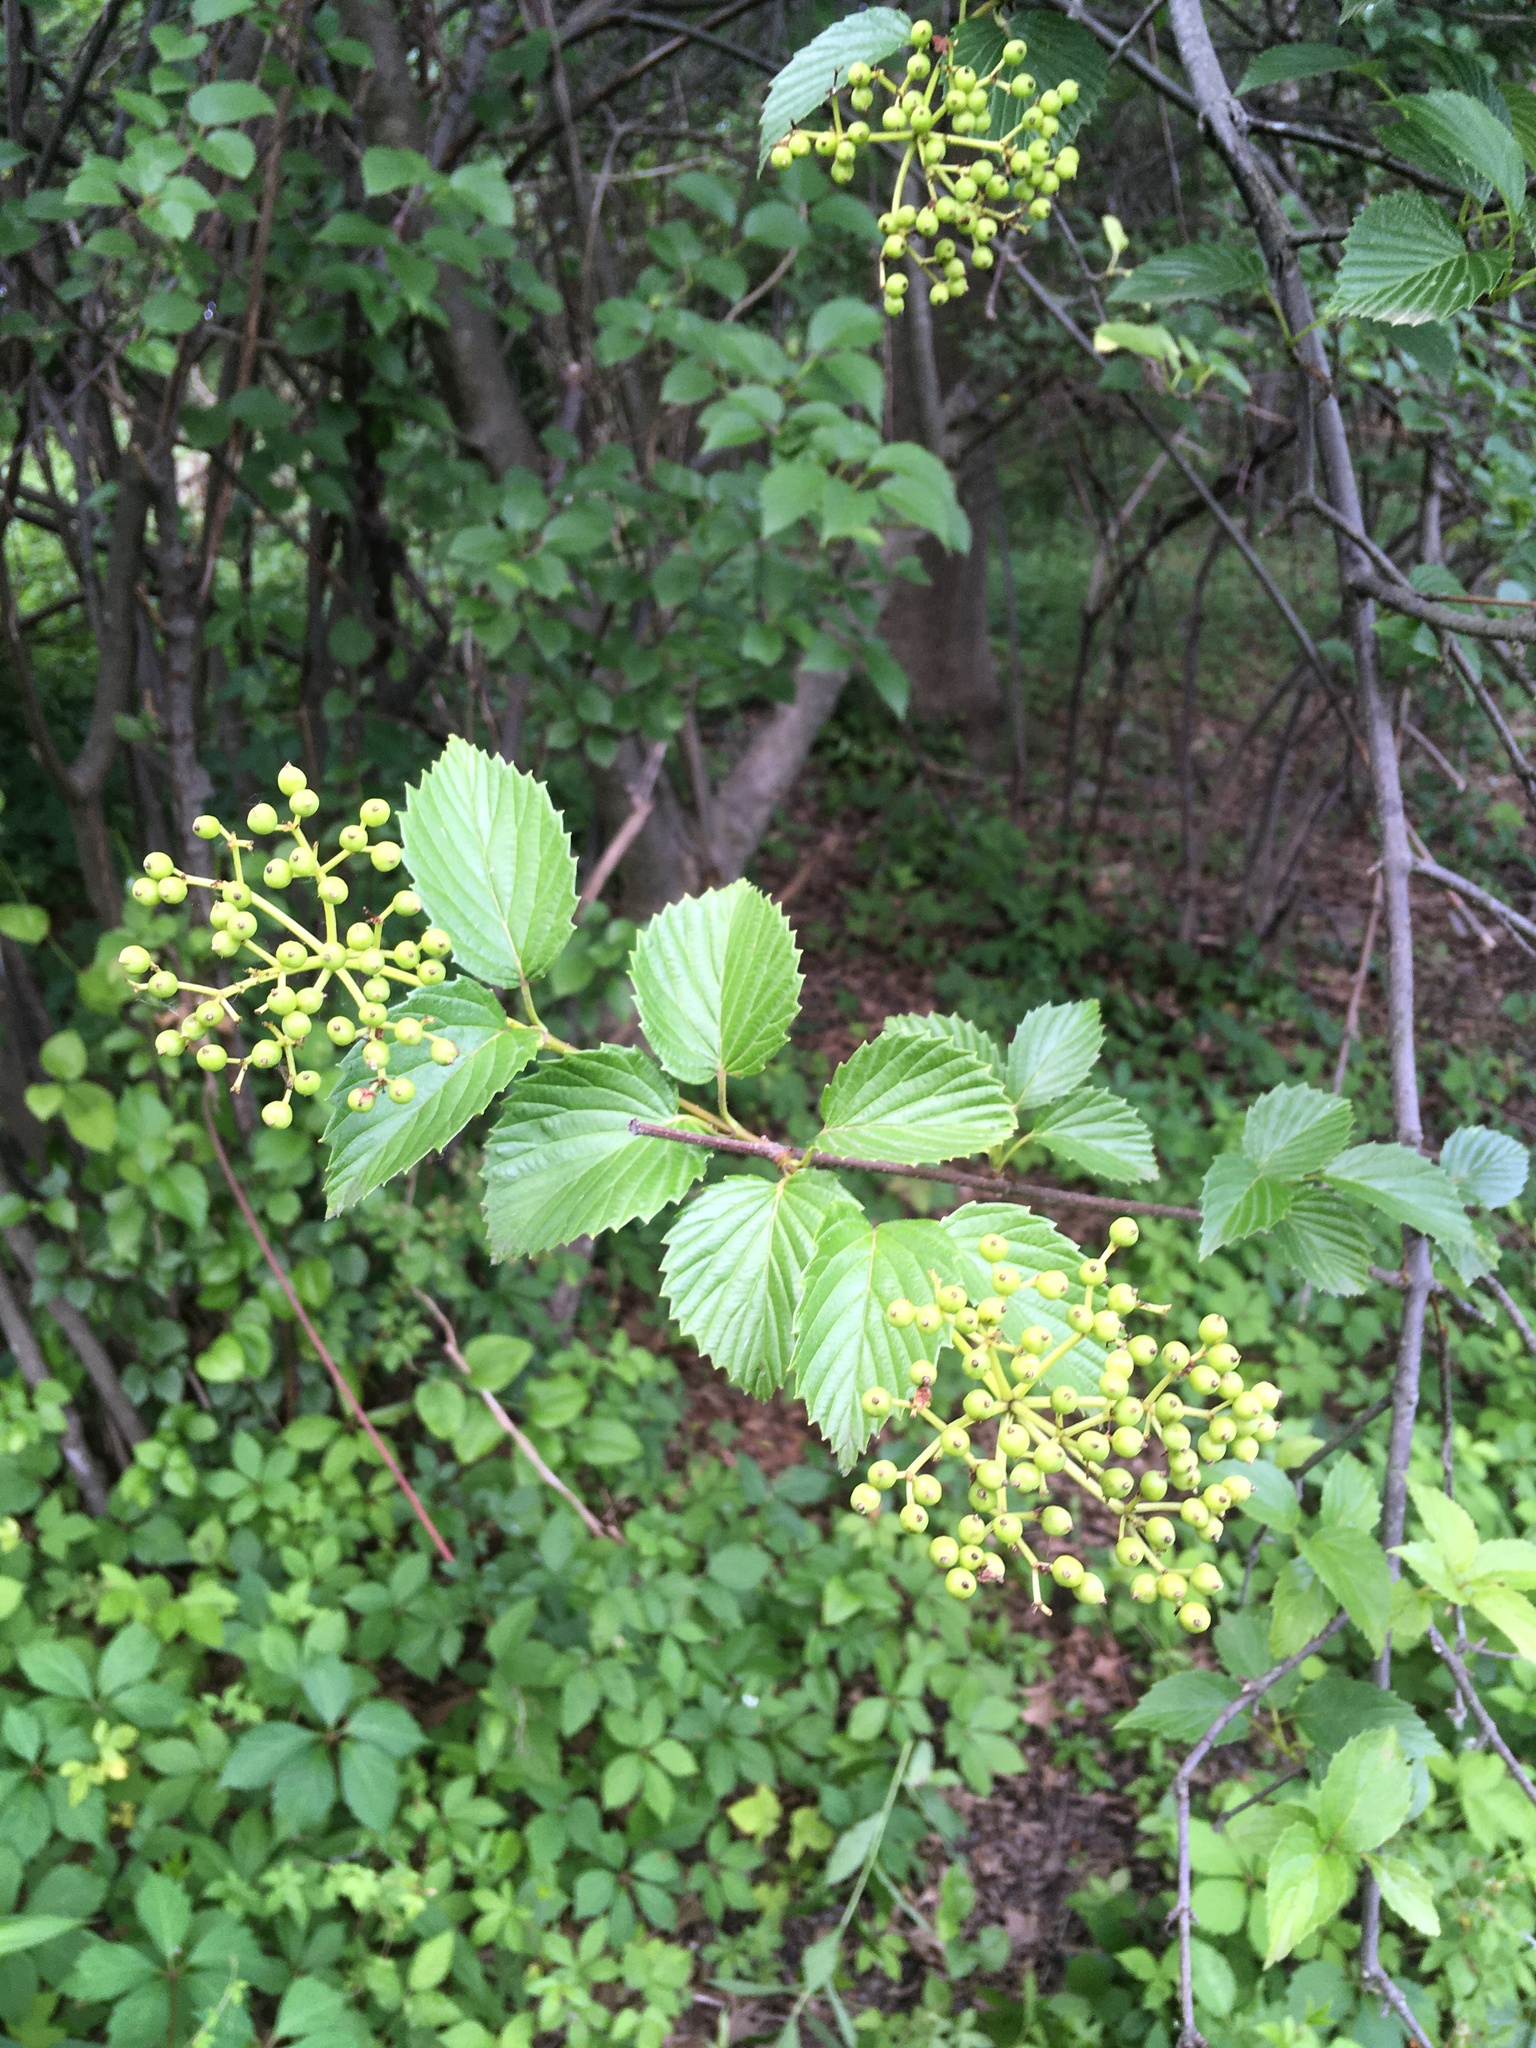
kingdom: Plantae
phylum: Tracheophyta
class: Magnoliopsida
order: Dipsacales
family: Viburnaceae
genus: Viburnum
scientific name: Viburnum dentatum
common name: Arrow-wood
